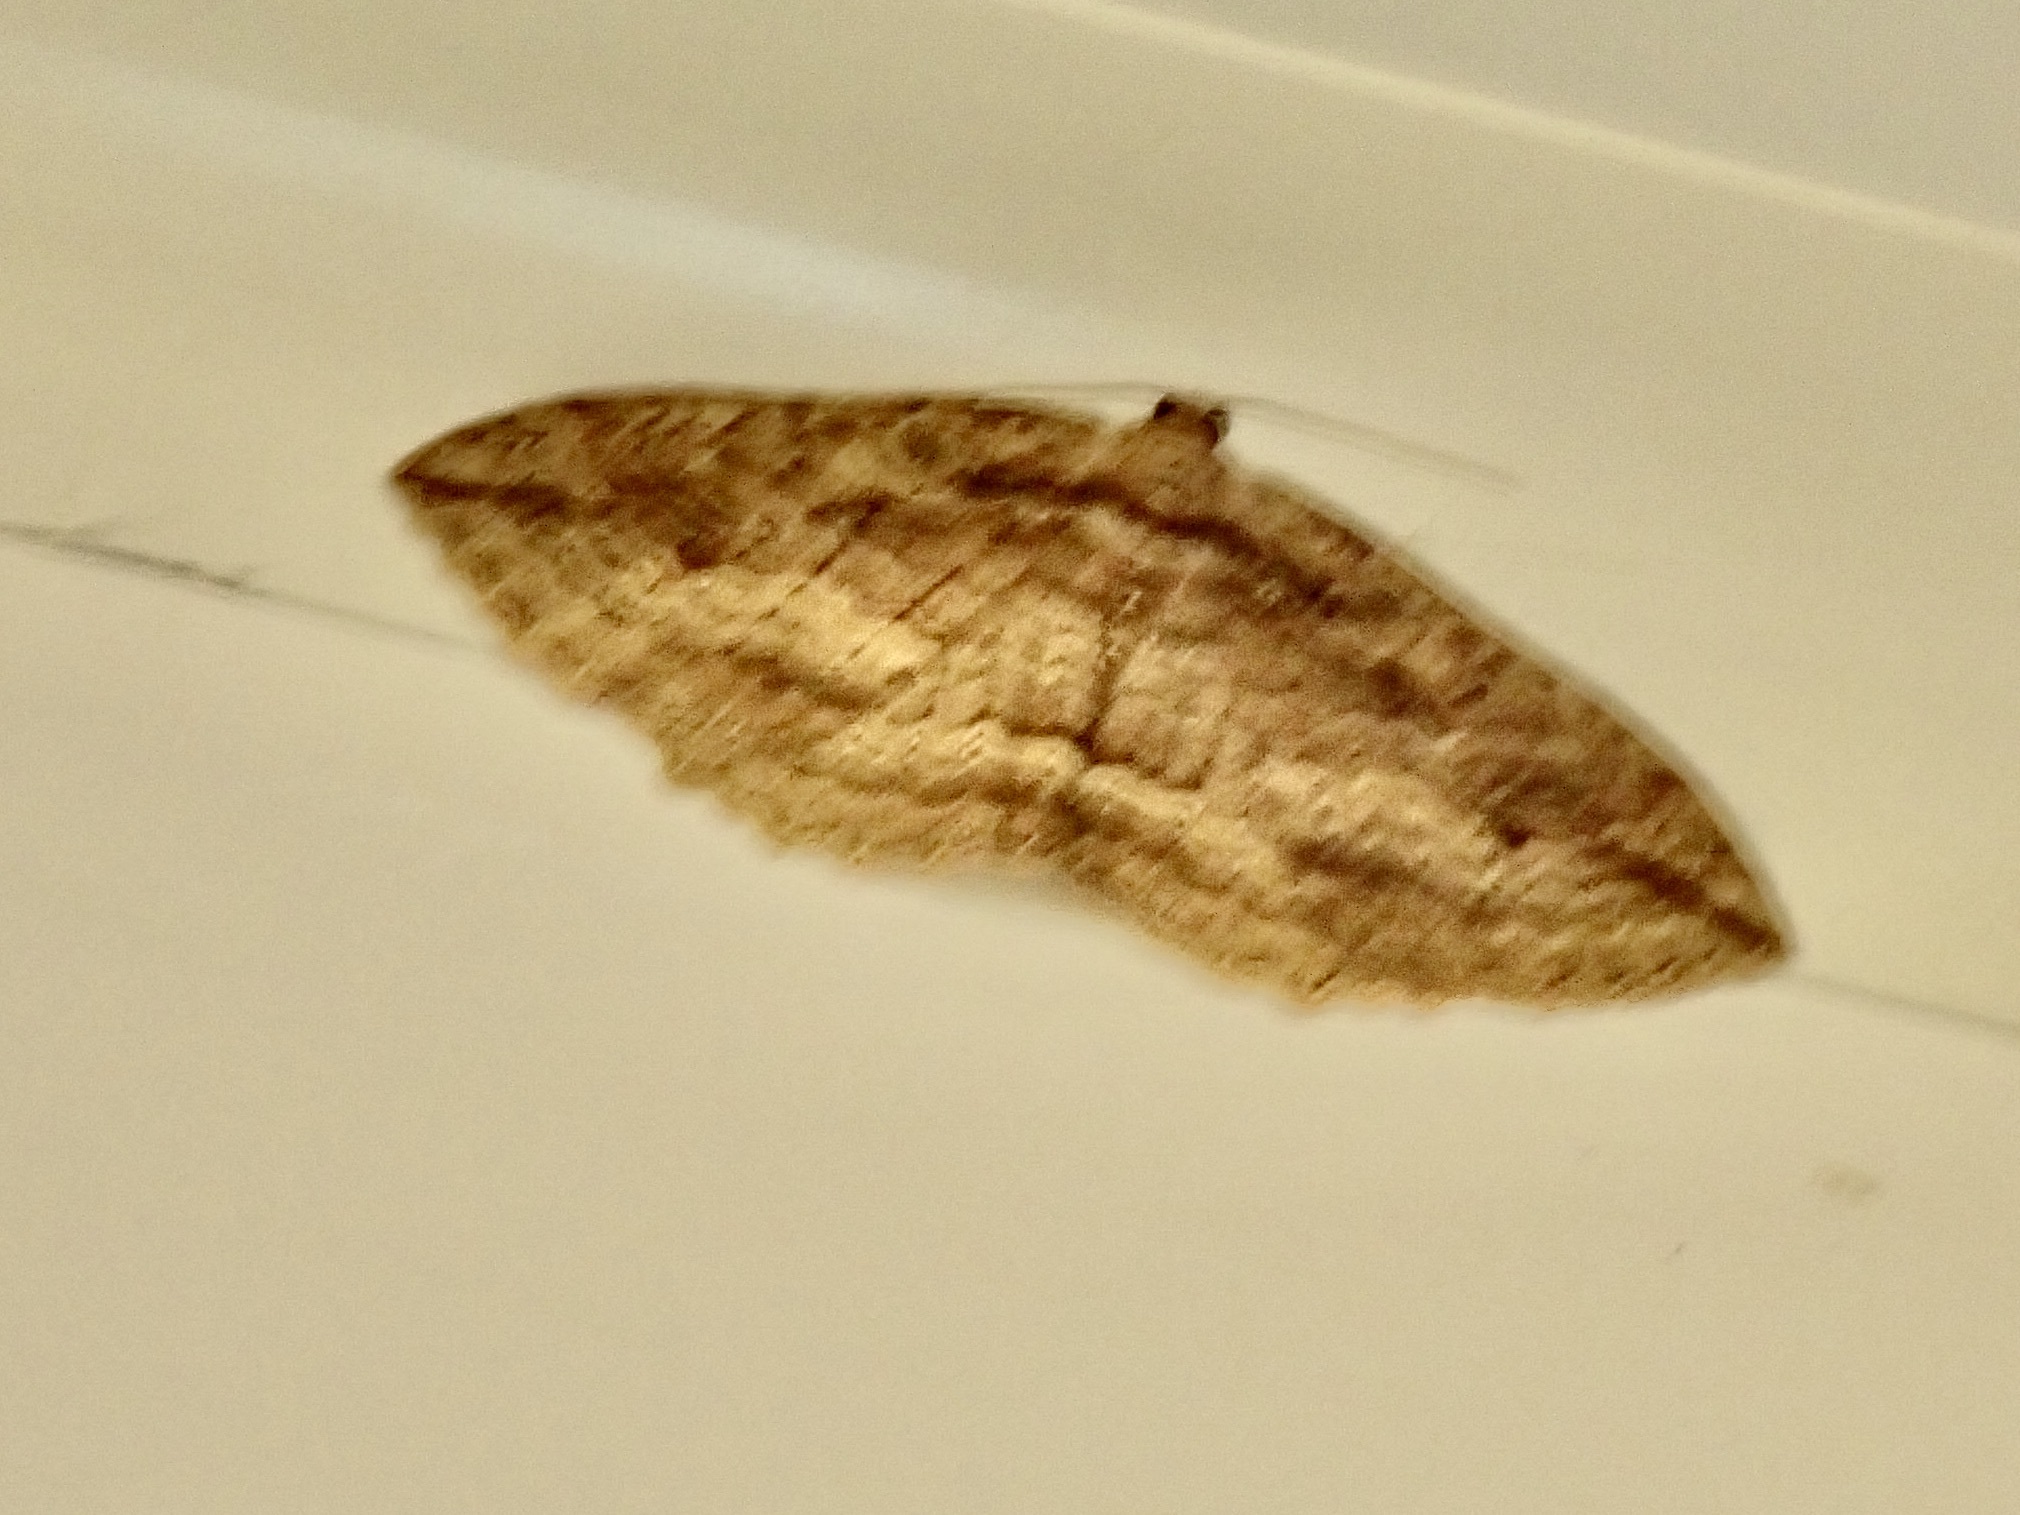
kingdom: Animalia
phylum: Arthropoda
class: Insecta
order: Lepidoptera
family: Geometridae
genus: Austrocidaria
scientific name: Austrocidaria gobiata
